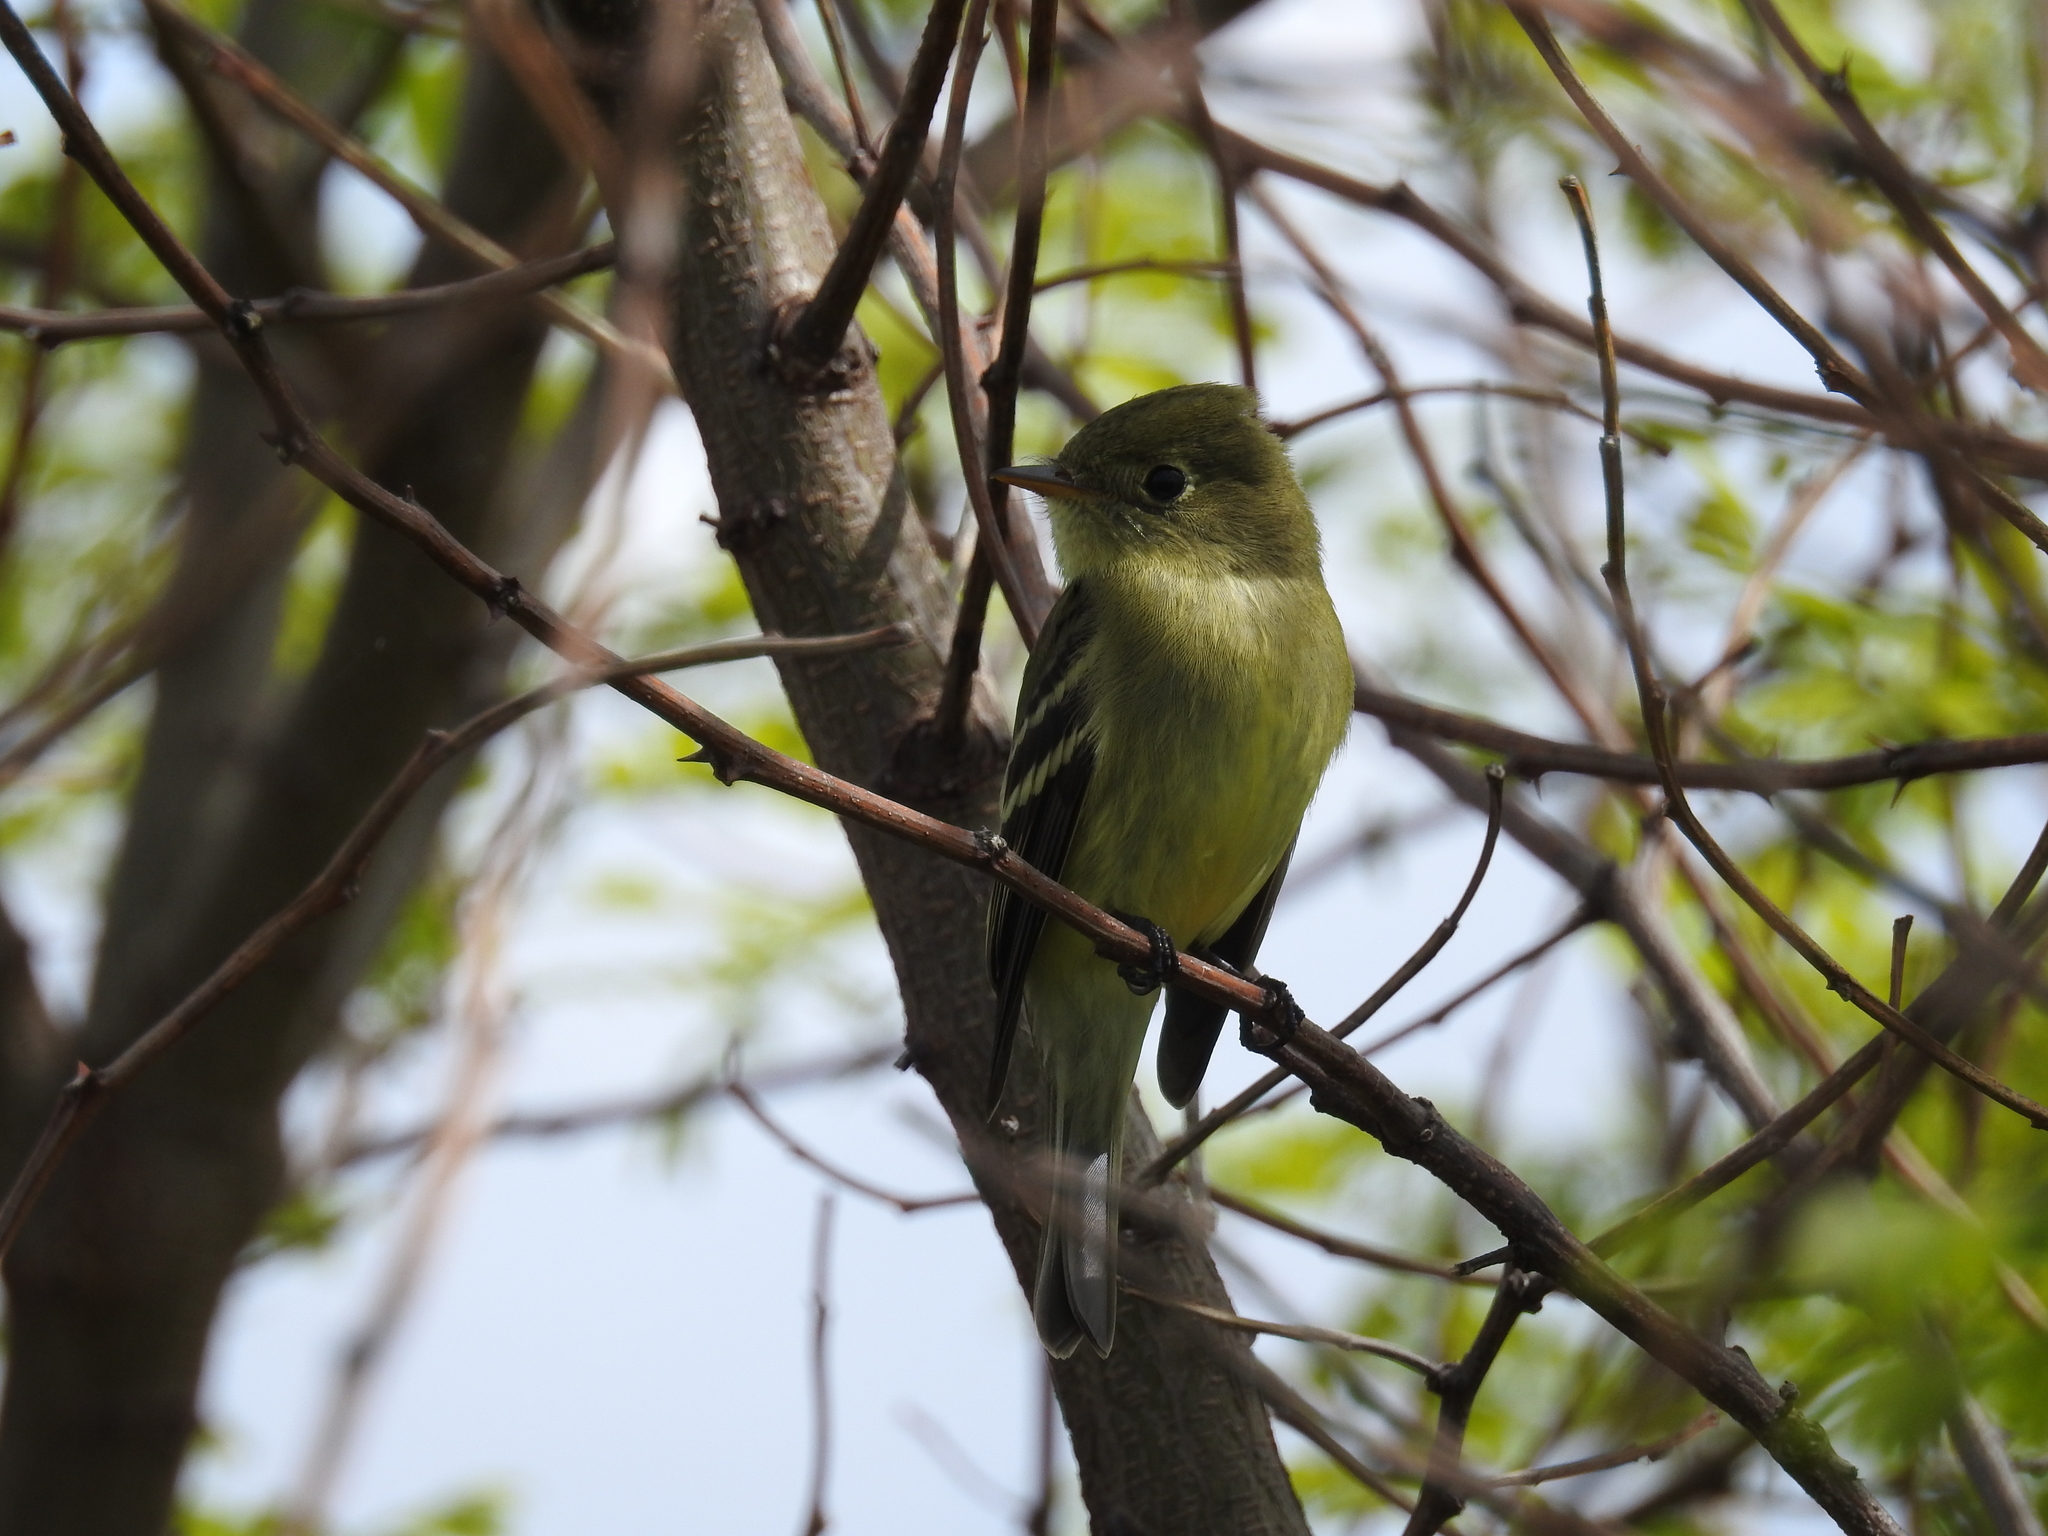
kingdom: Animalia
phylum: Chordata
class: Aves
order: Passeriformes
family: Tyrannidae
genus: Empidonax
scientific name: Empidonax flaviventris
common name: Yellow-bellied flycatcher
